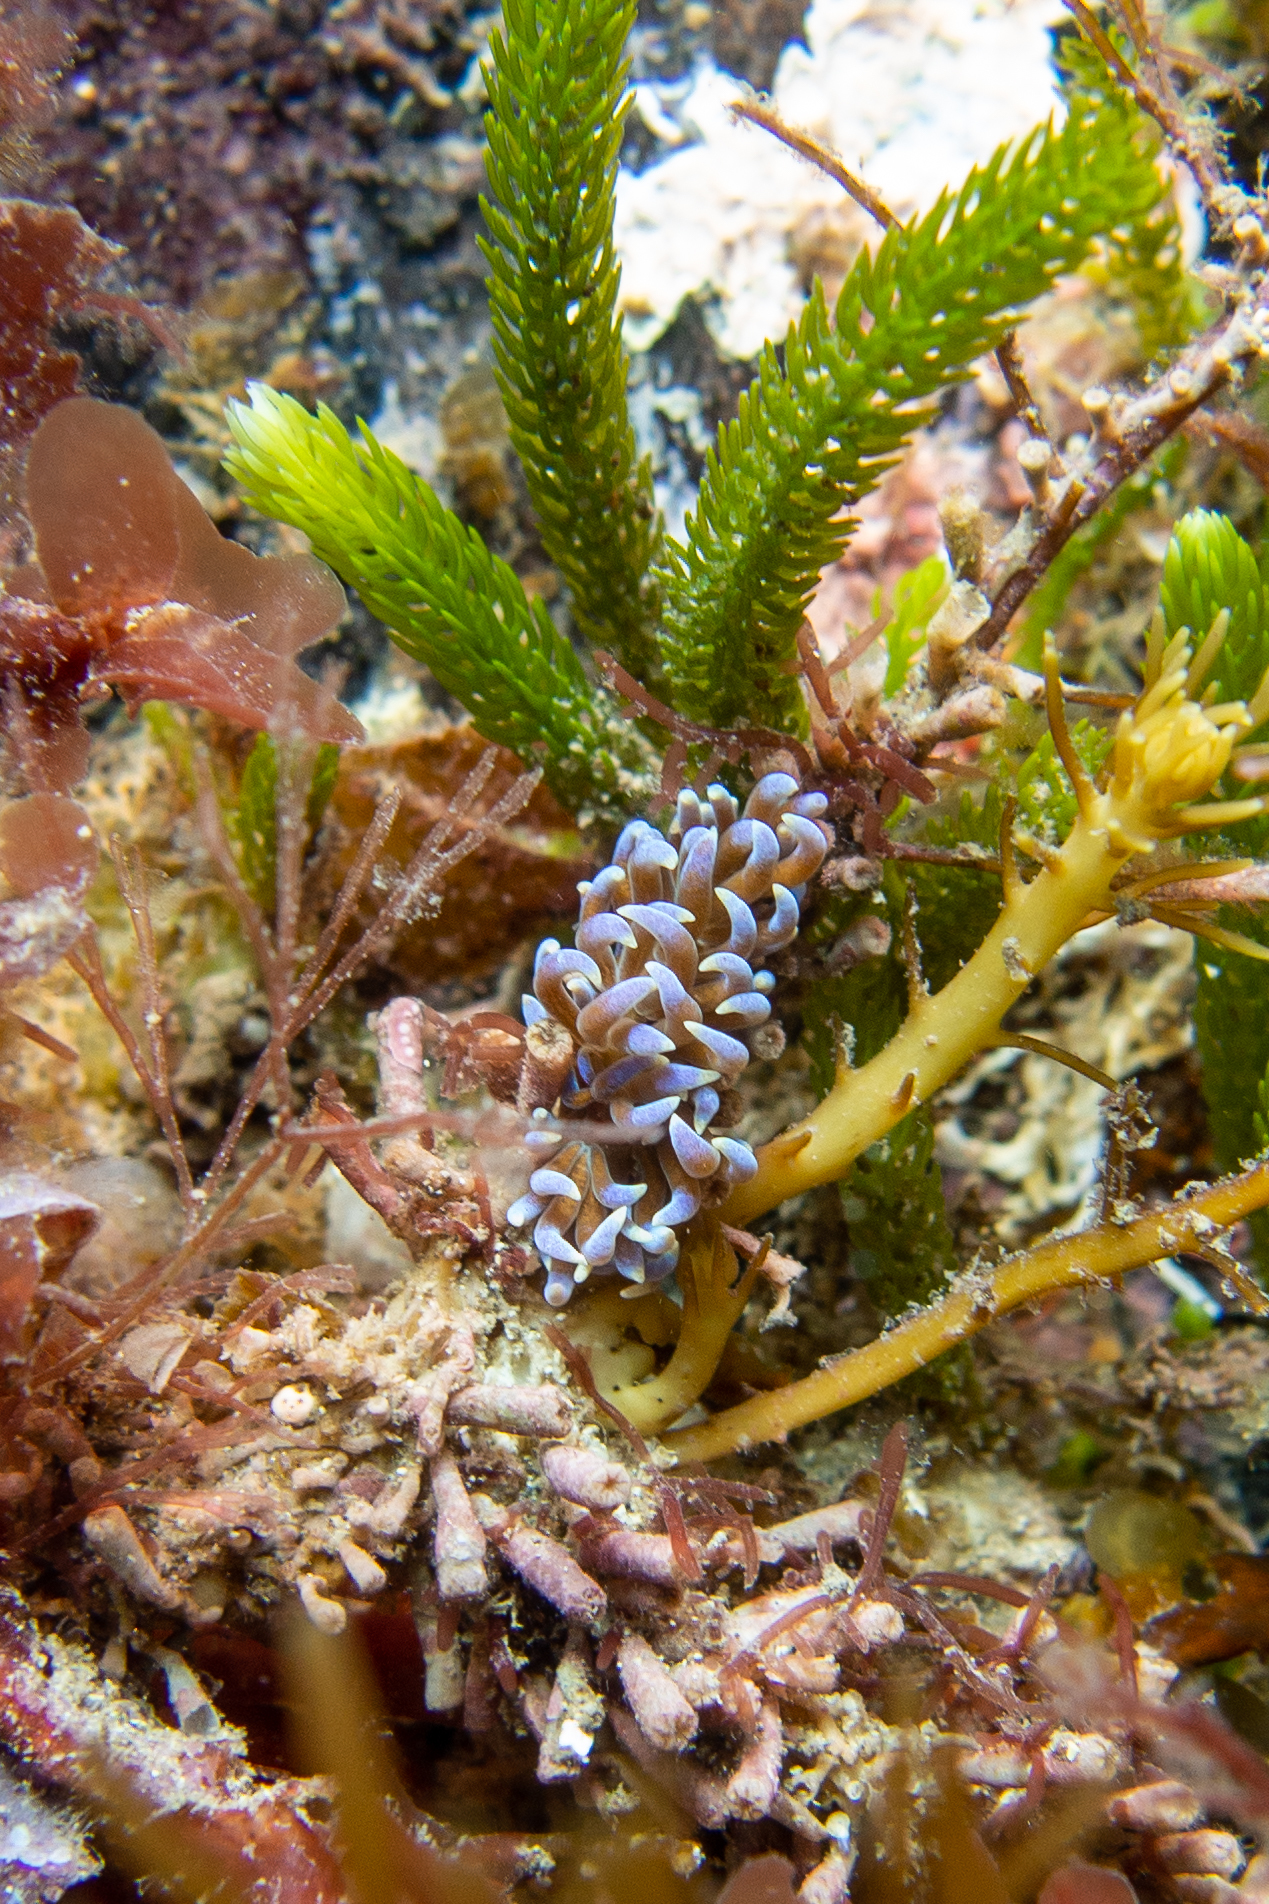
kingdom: Animalia
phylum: Mollusca
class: Gastropoda
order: Nudibranchia
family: Myrrhinidae
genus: Phyllodesmium
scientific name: Phyllodesmium macphersonae
